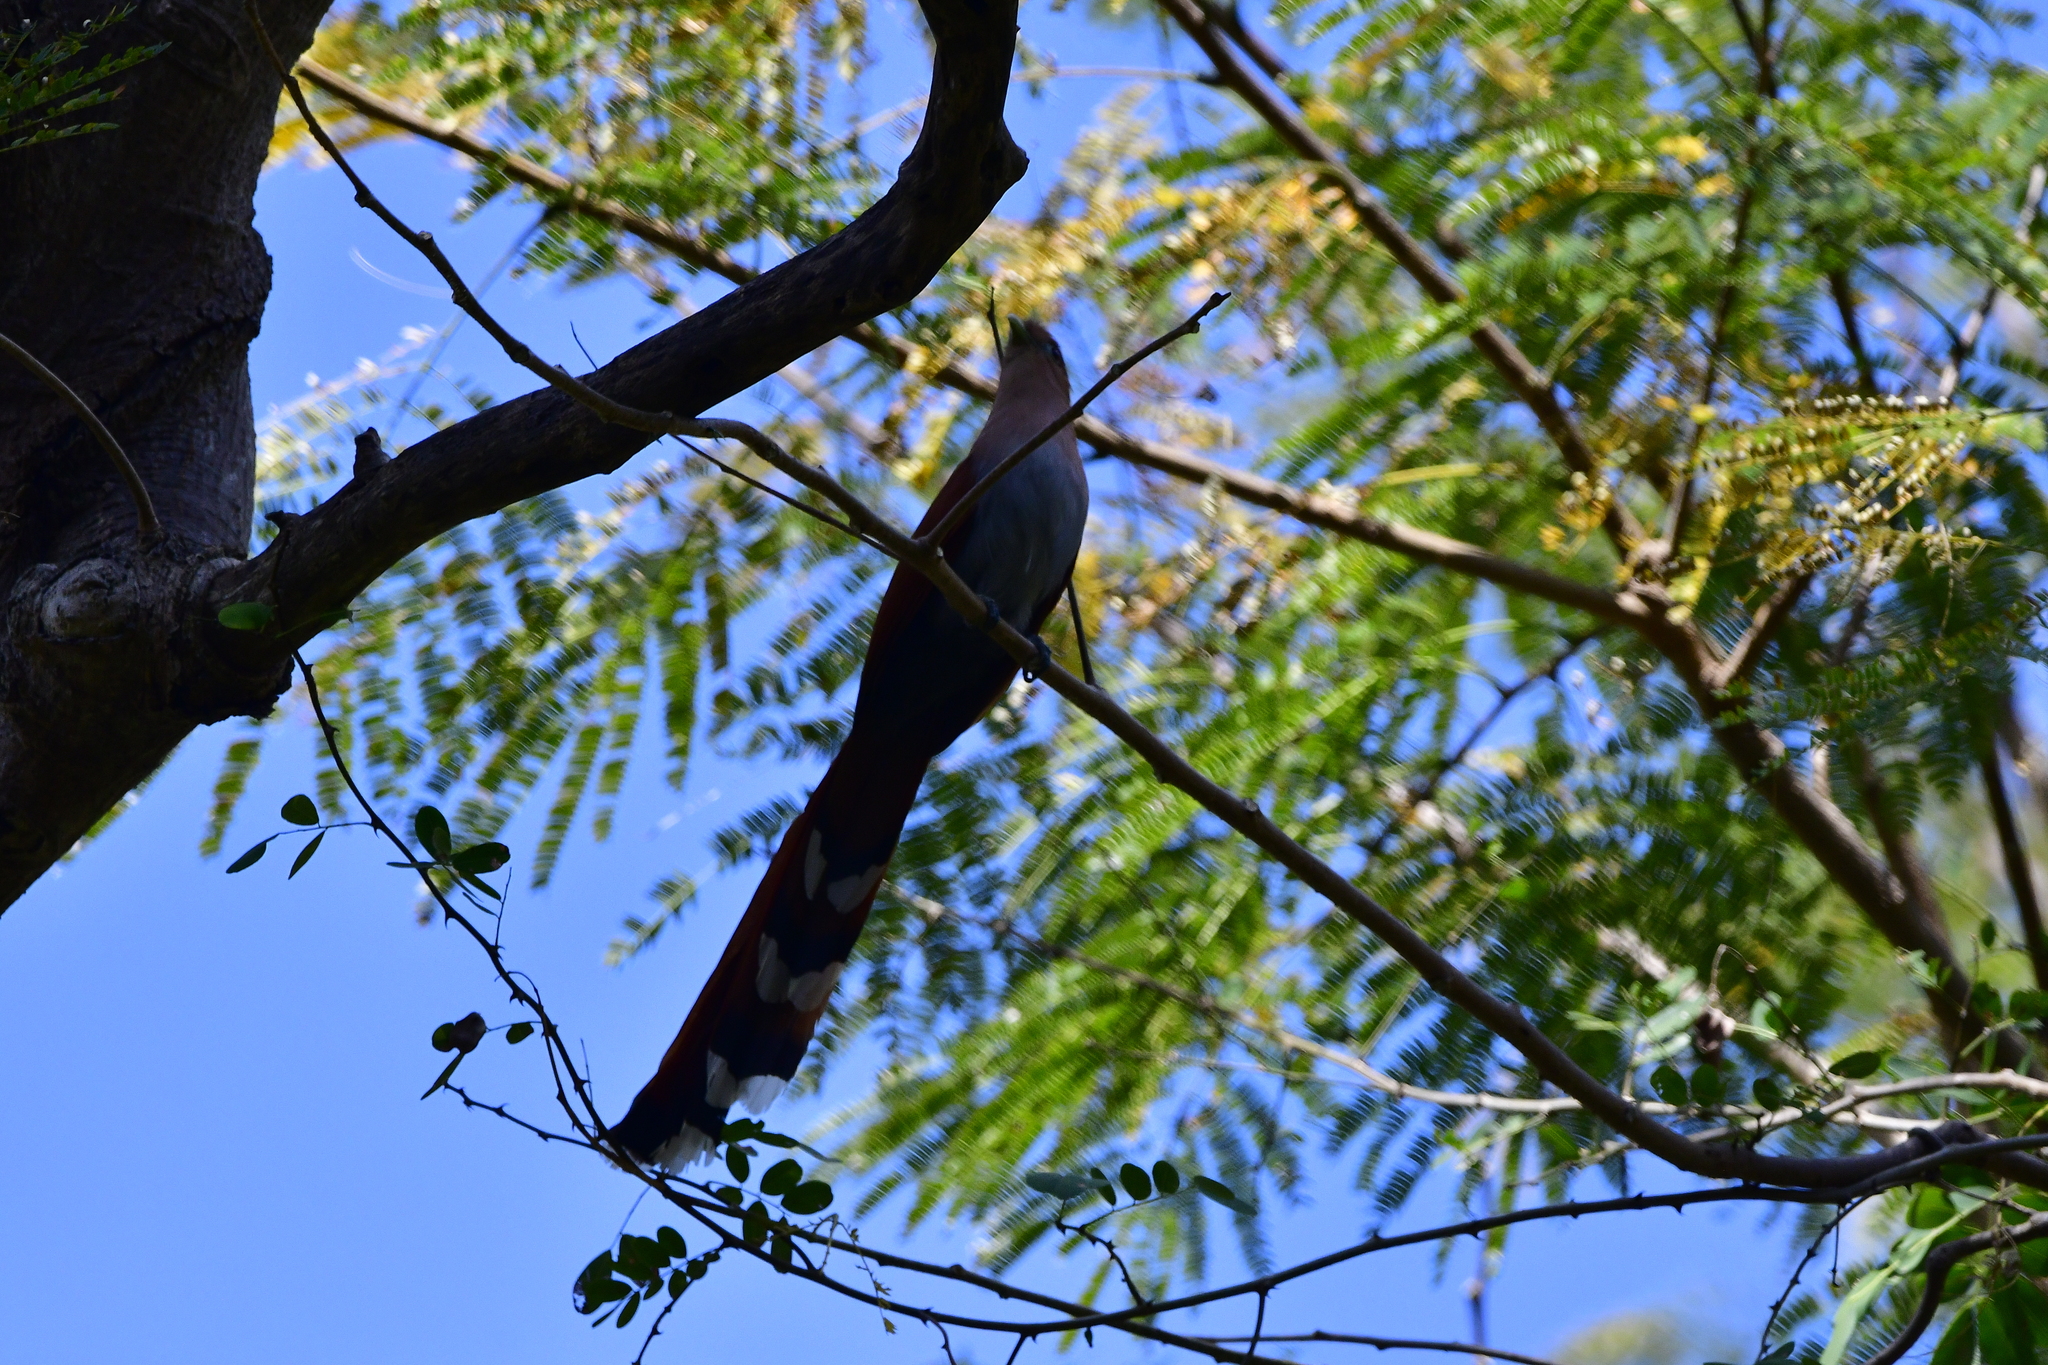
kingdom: Animalia
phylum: Chordata
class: Aves
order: Cuculiformes
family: Cuculidae
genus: Piaya
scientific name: Piaya cayana
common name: Squirrel cuckoo
